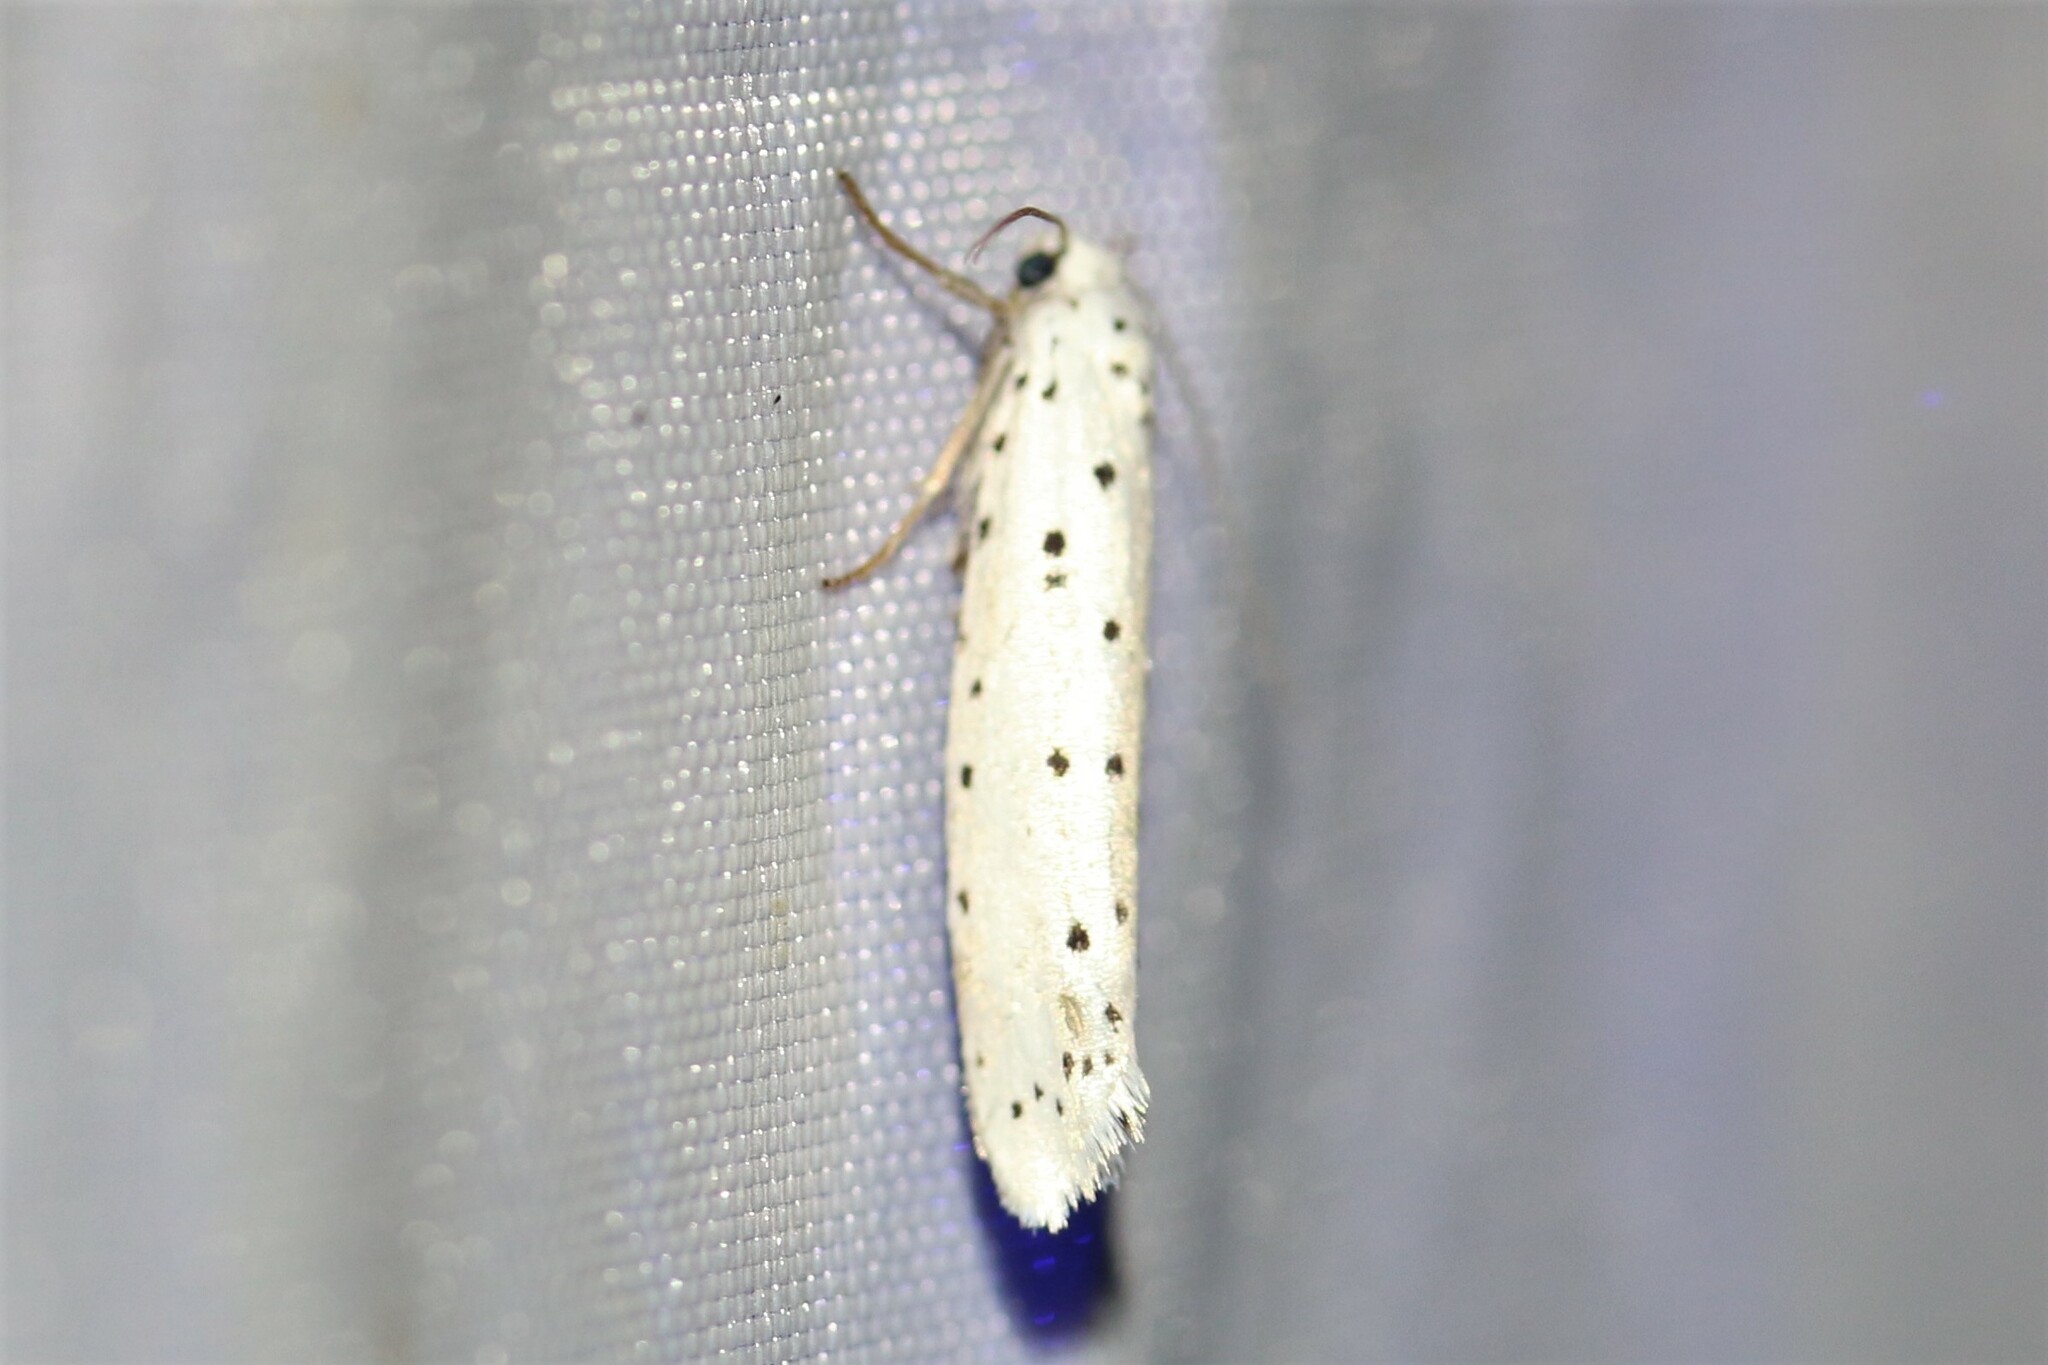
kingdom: Animalia
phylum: Arthropoda
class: Insecta
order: Lepidoptera
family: Yponomeutidae
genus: Yponomeuta
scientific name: Yponomeuta
